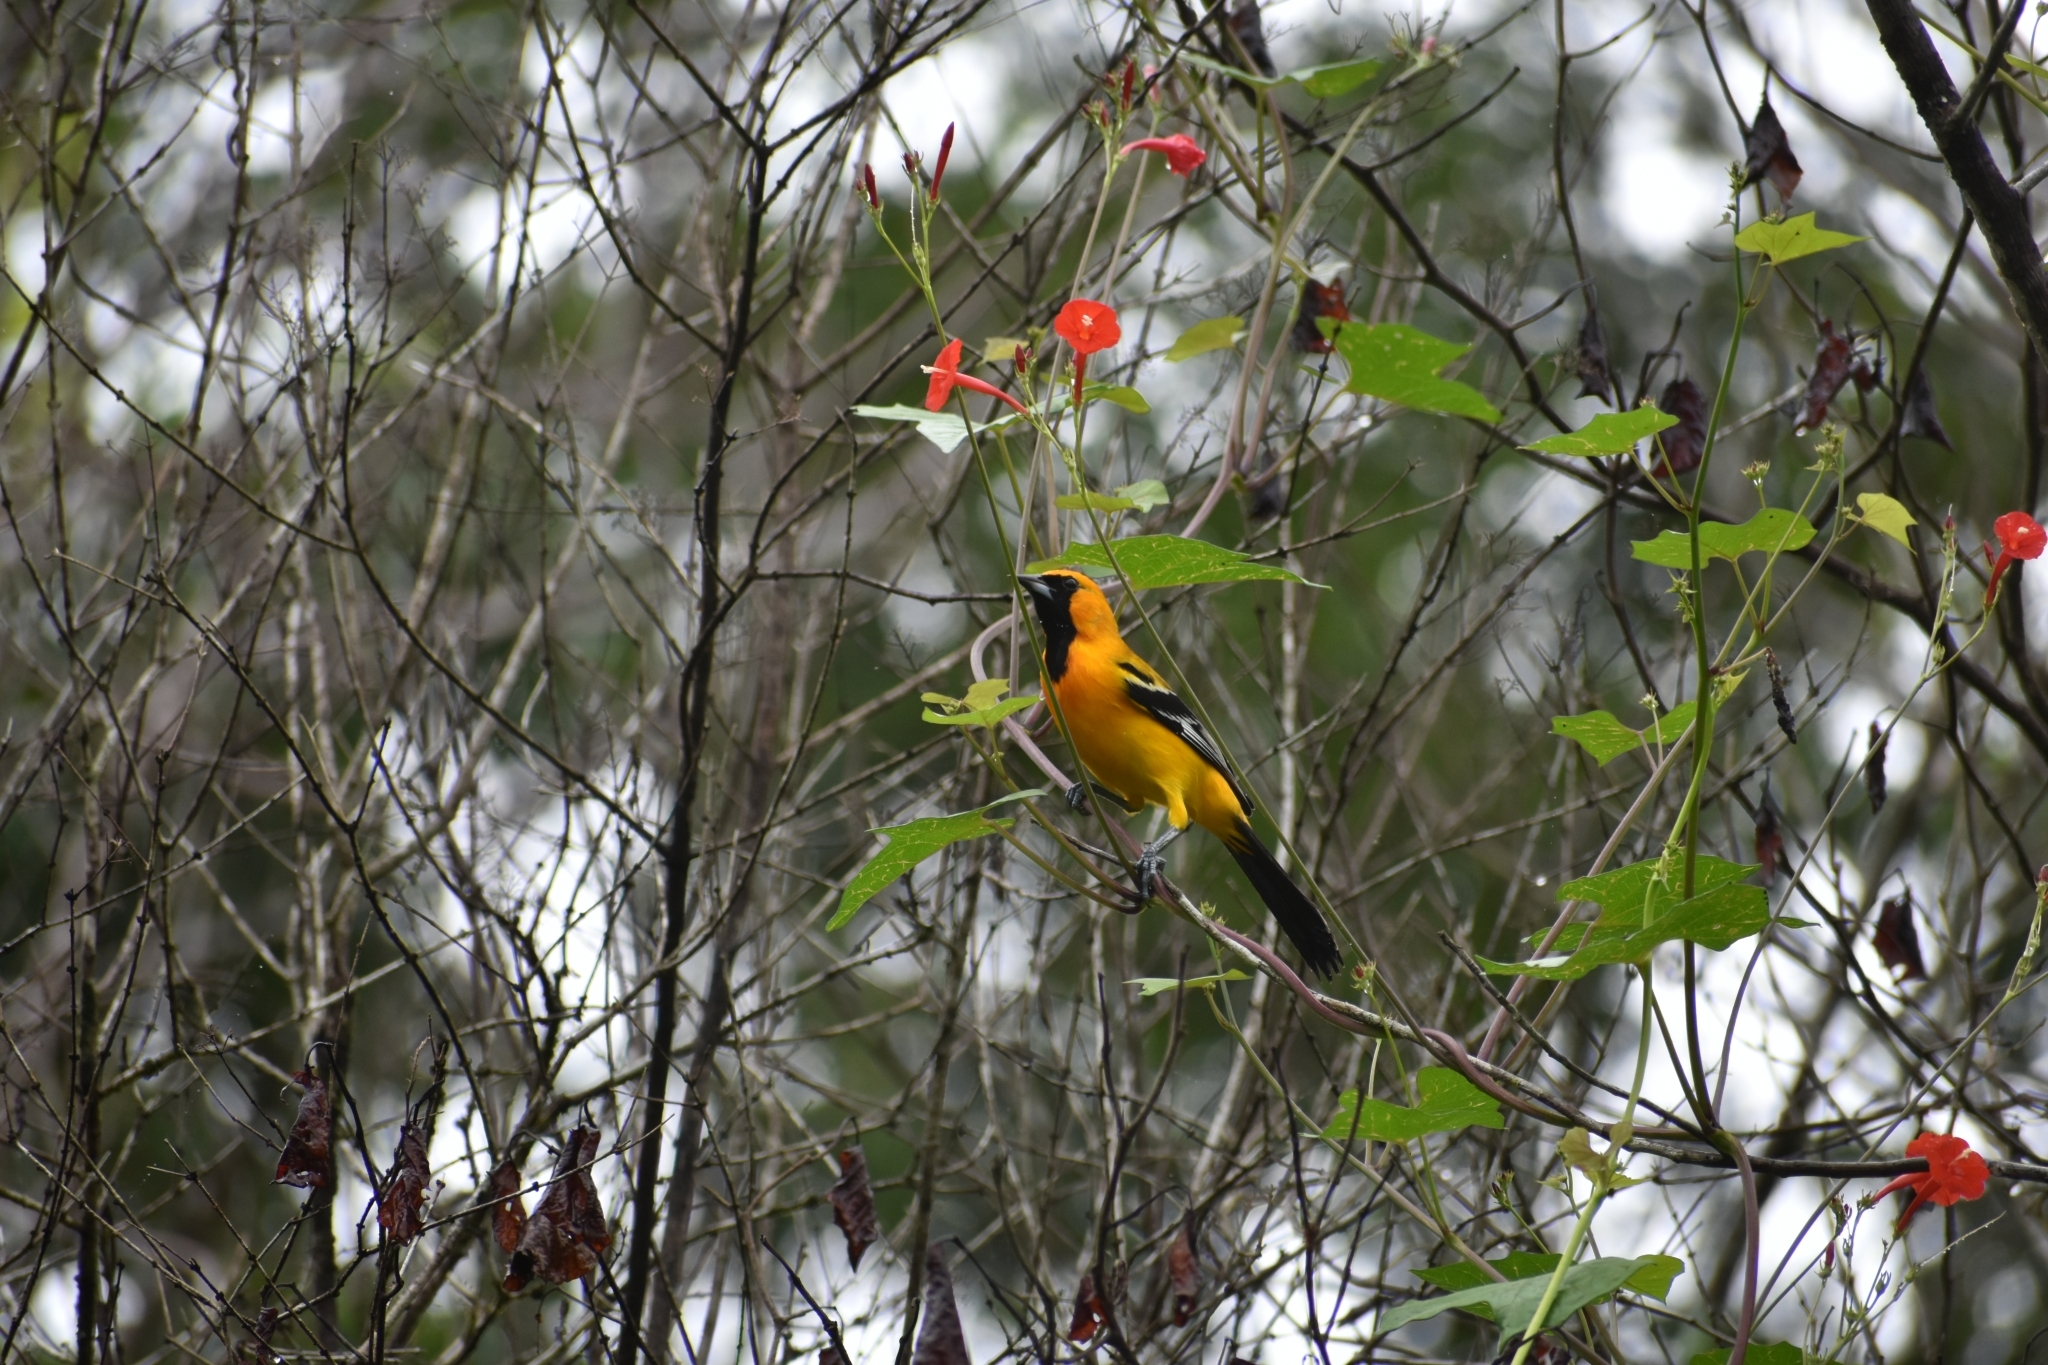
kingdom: Animalia
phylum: Chordata
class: Aves
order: Passeriformes
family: Icteridae
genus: Icterus
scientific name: Icterus auratus
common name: Orange oriole
